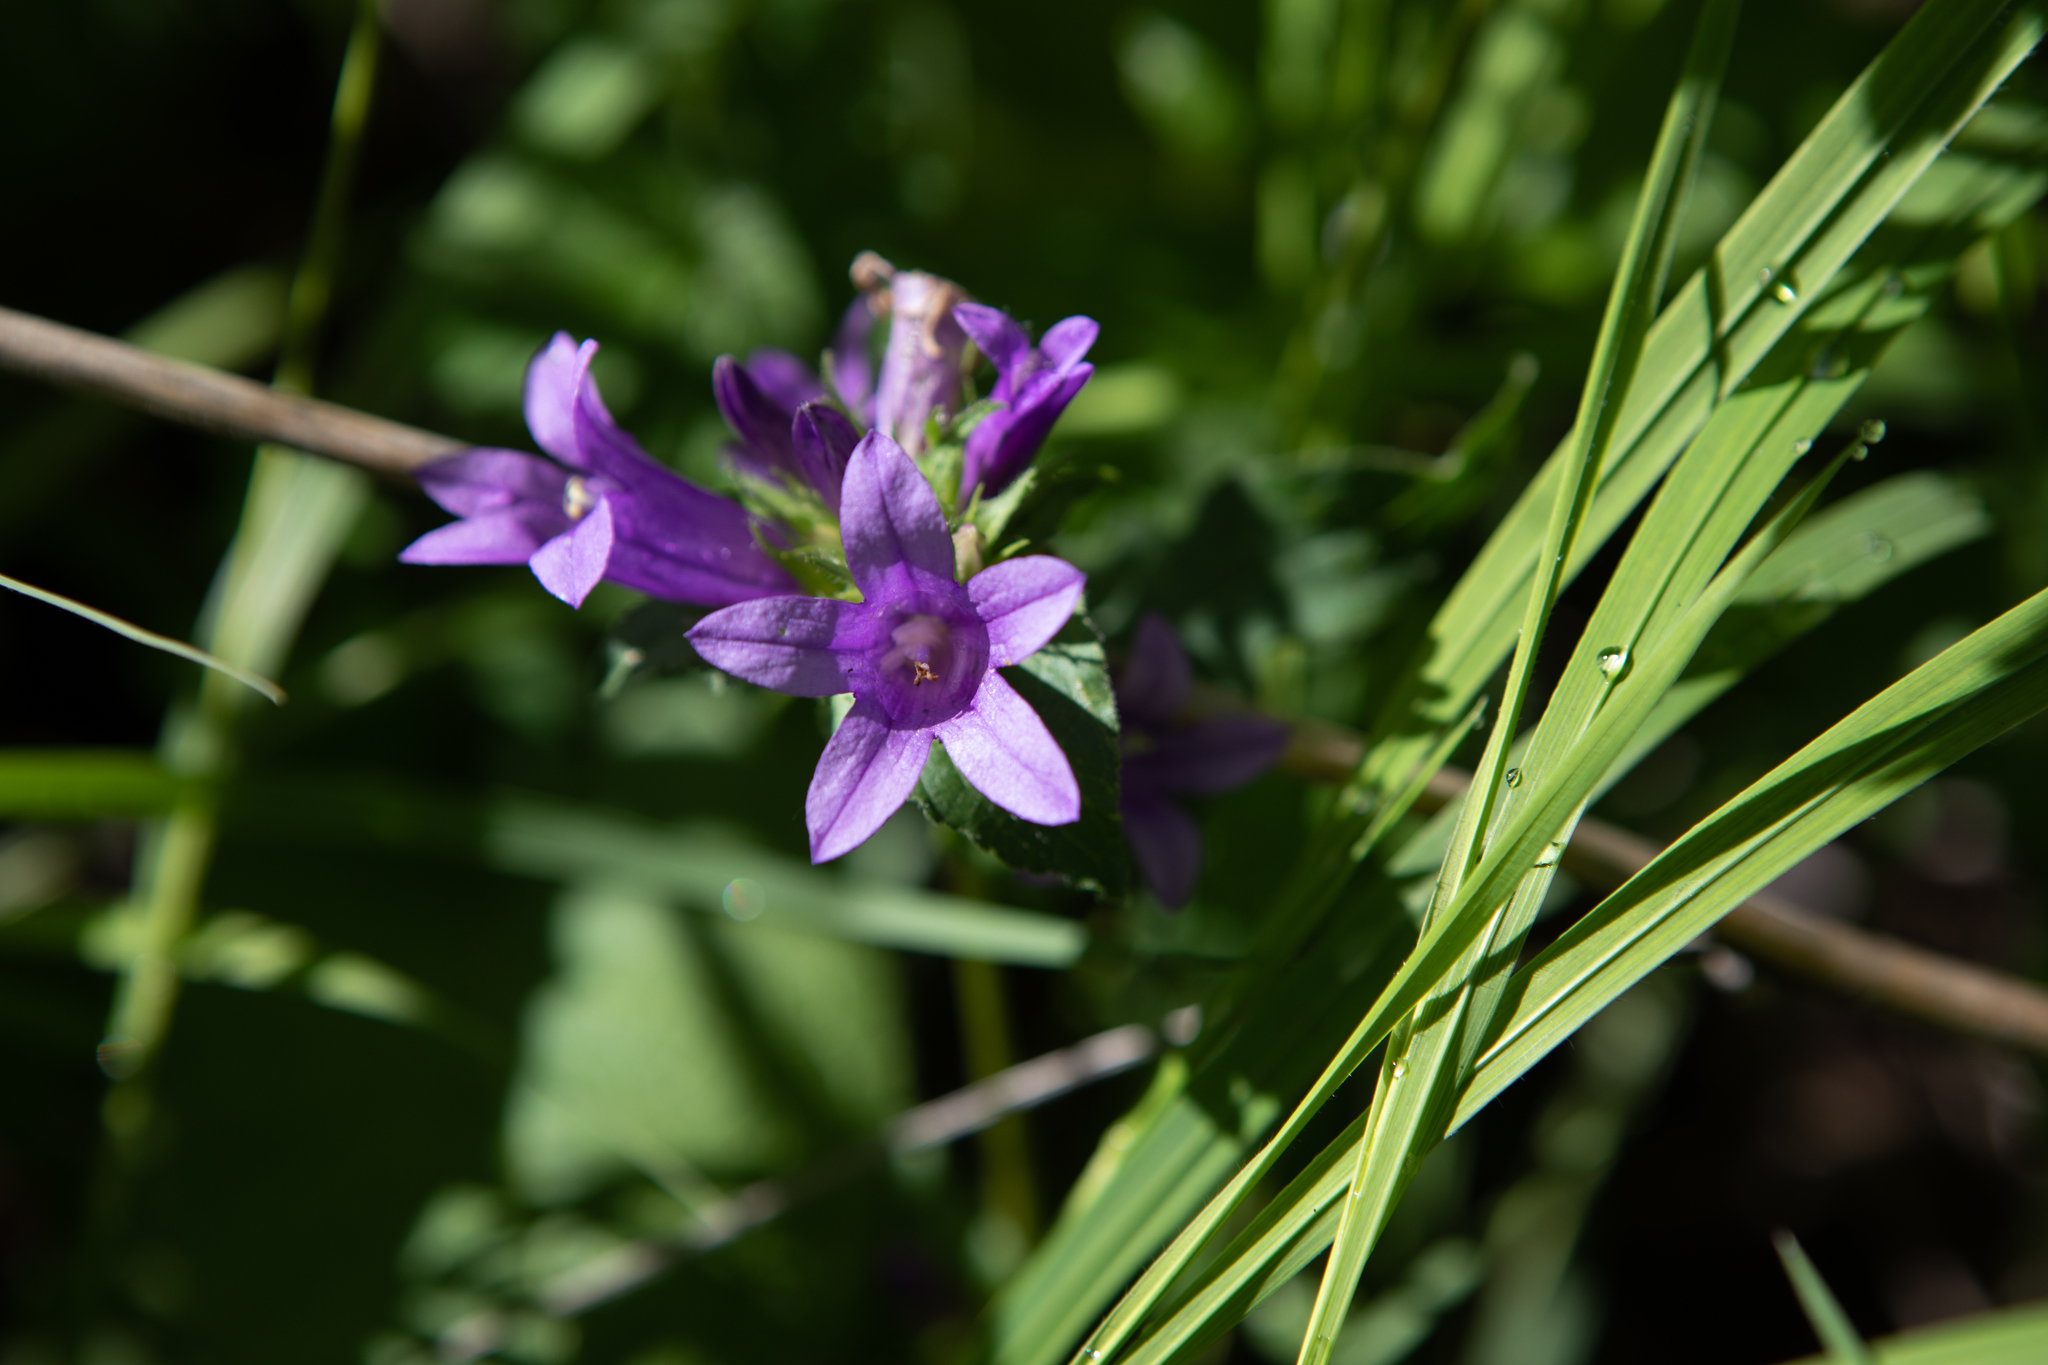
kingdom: Plantae
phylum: Tracheophyta
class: Magnoliopsida
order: Asterales
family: Campanulaceae
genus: Campanula
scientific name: Campanula glomerata
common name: Clustered bellflower
